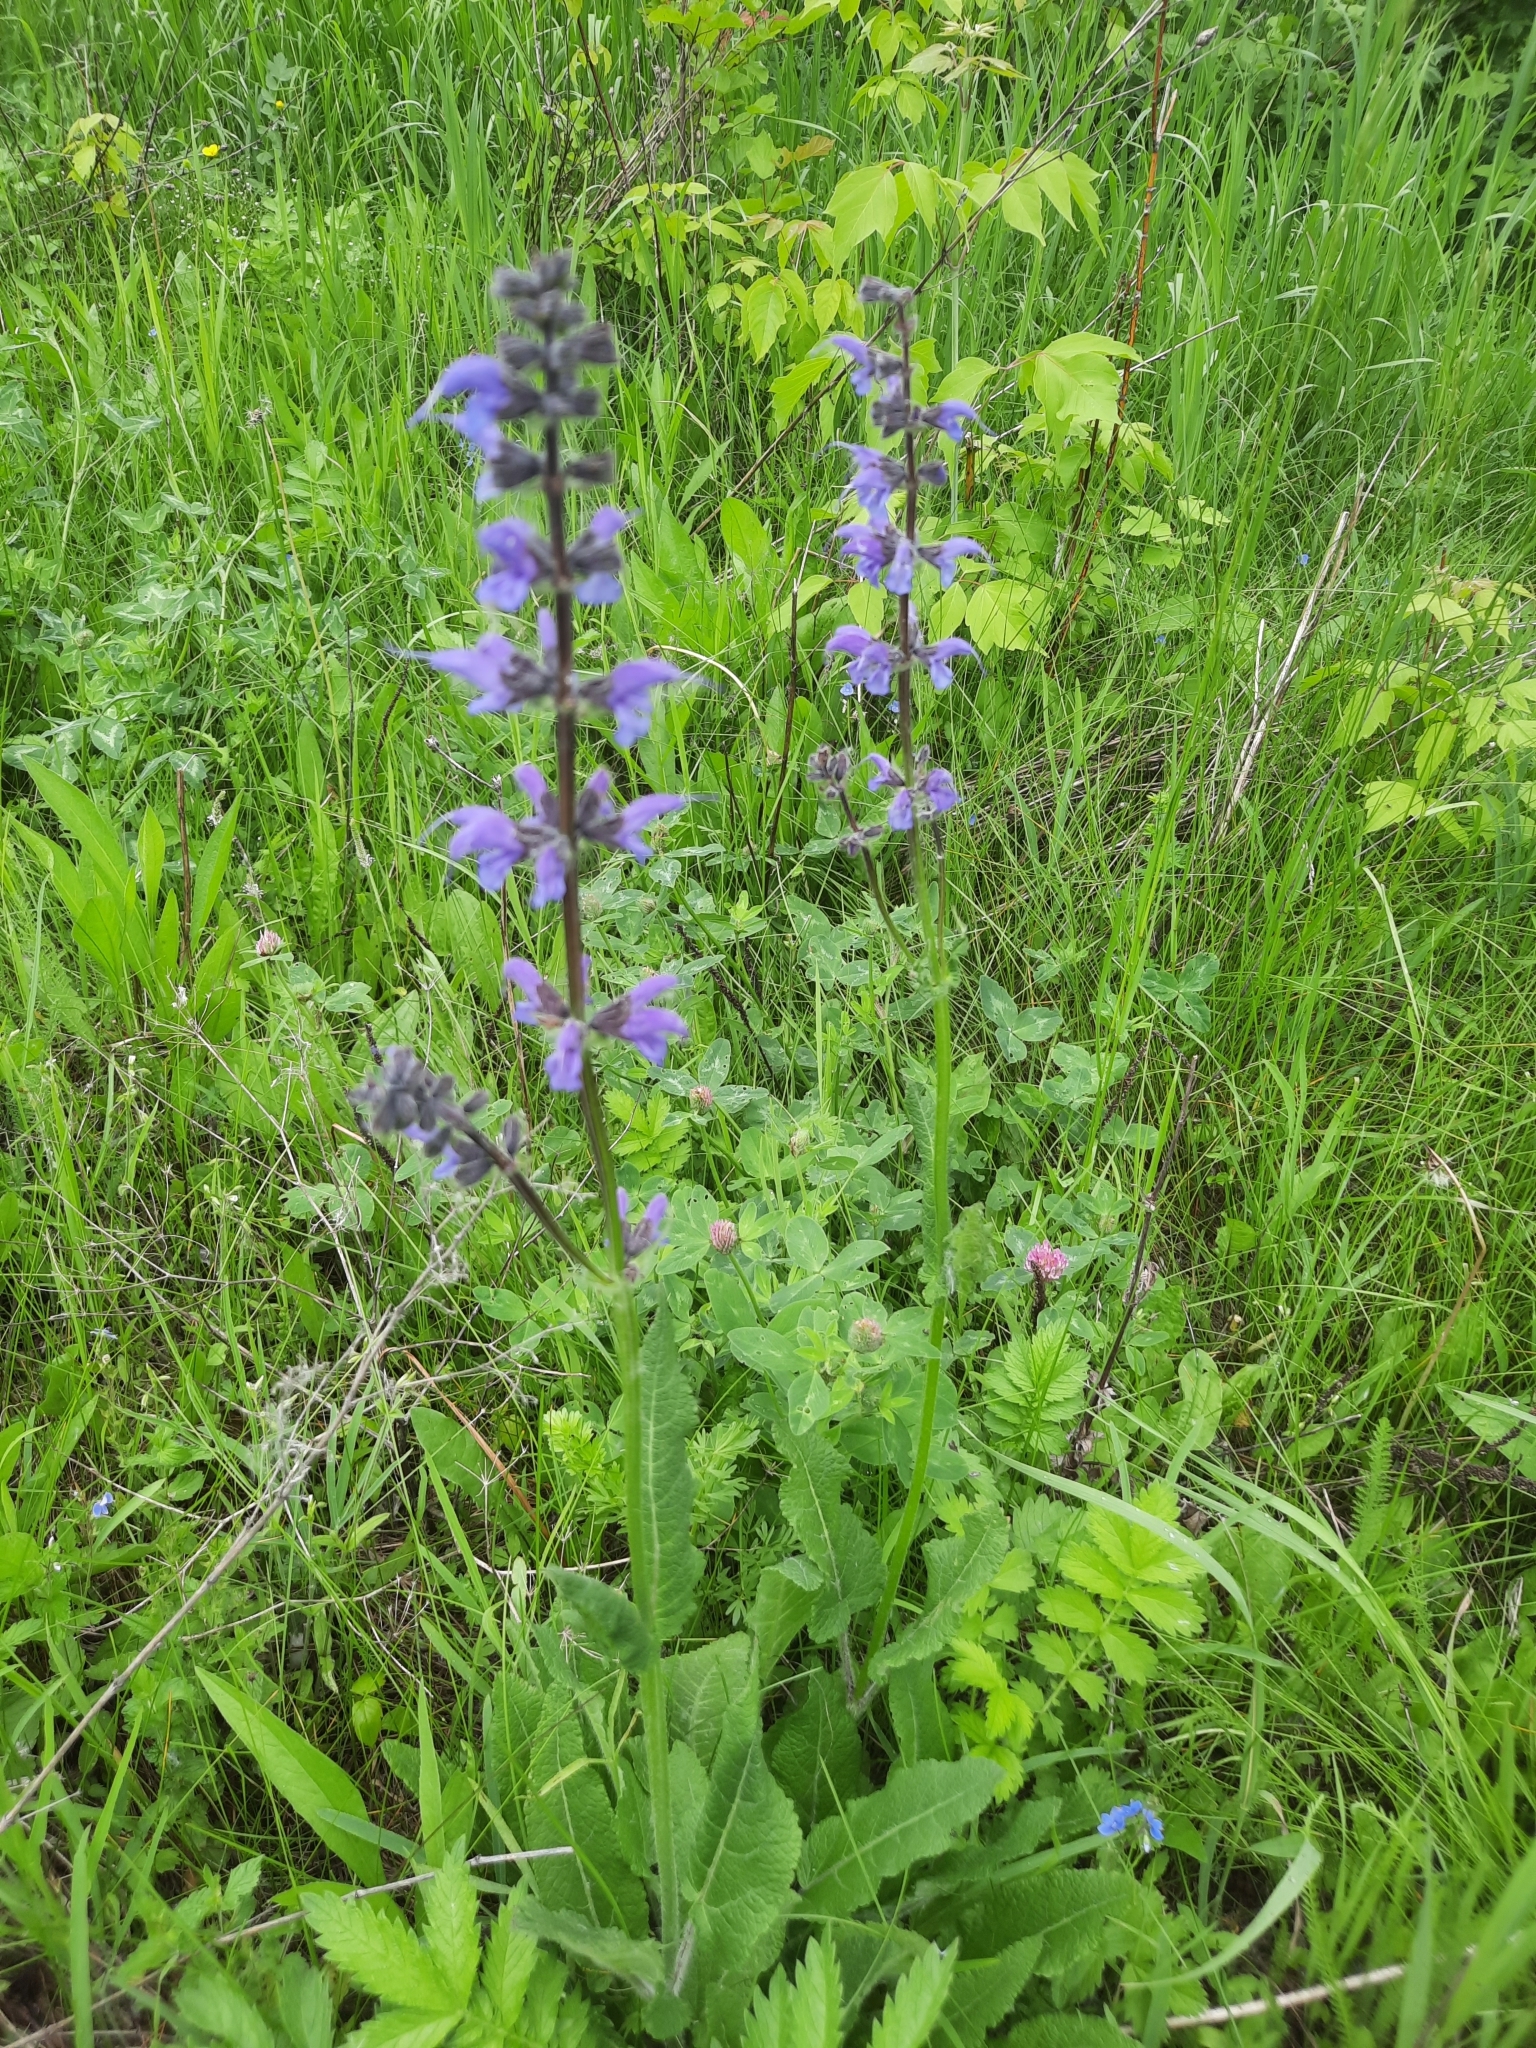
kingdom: Plantae
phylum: Tracheophyta
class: Magnoliopsida
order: Lamiales
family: Lamiaceae
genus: Salvia
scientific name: Salvia dumetorum
